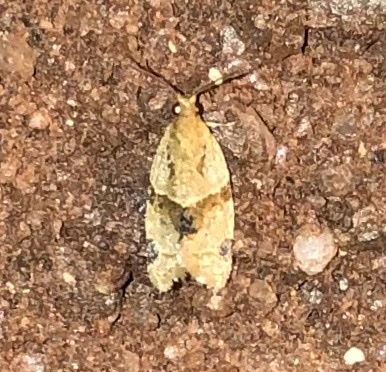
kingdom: Animalia
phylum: Arthropoda
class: Insecta
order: Lepidoptera
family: Tortricidae
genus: Clepsis
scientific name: Clepsis peritana
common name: Garden tortrix
